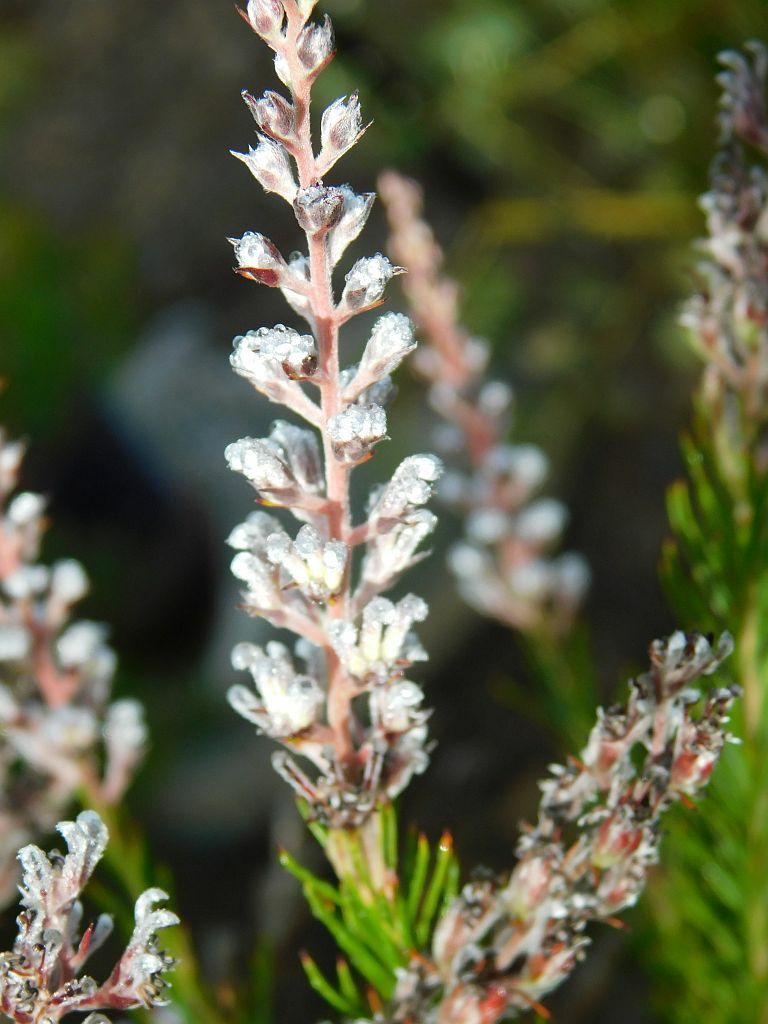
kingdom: Plantae
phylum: Tracheophyta
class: Magnoliopsida
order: Proteales
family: Proteaceae
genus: Spatalla
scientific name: Spatalla propinqua
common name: Lax spoon
